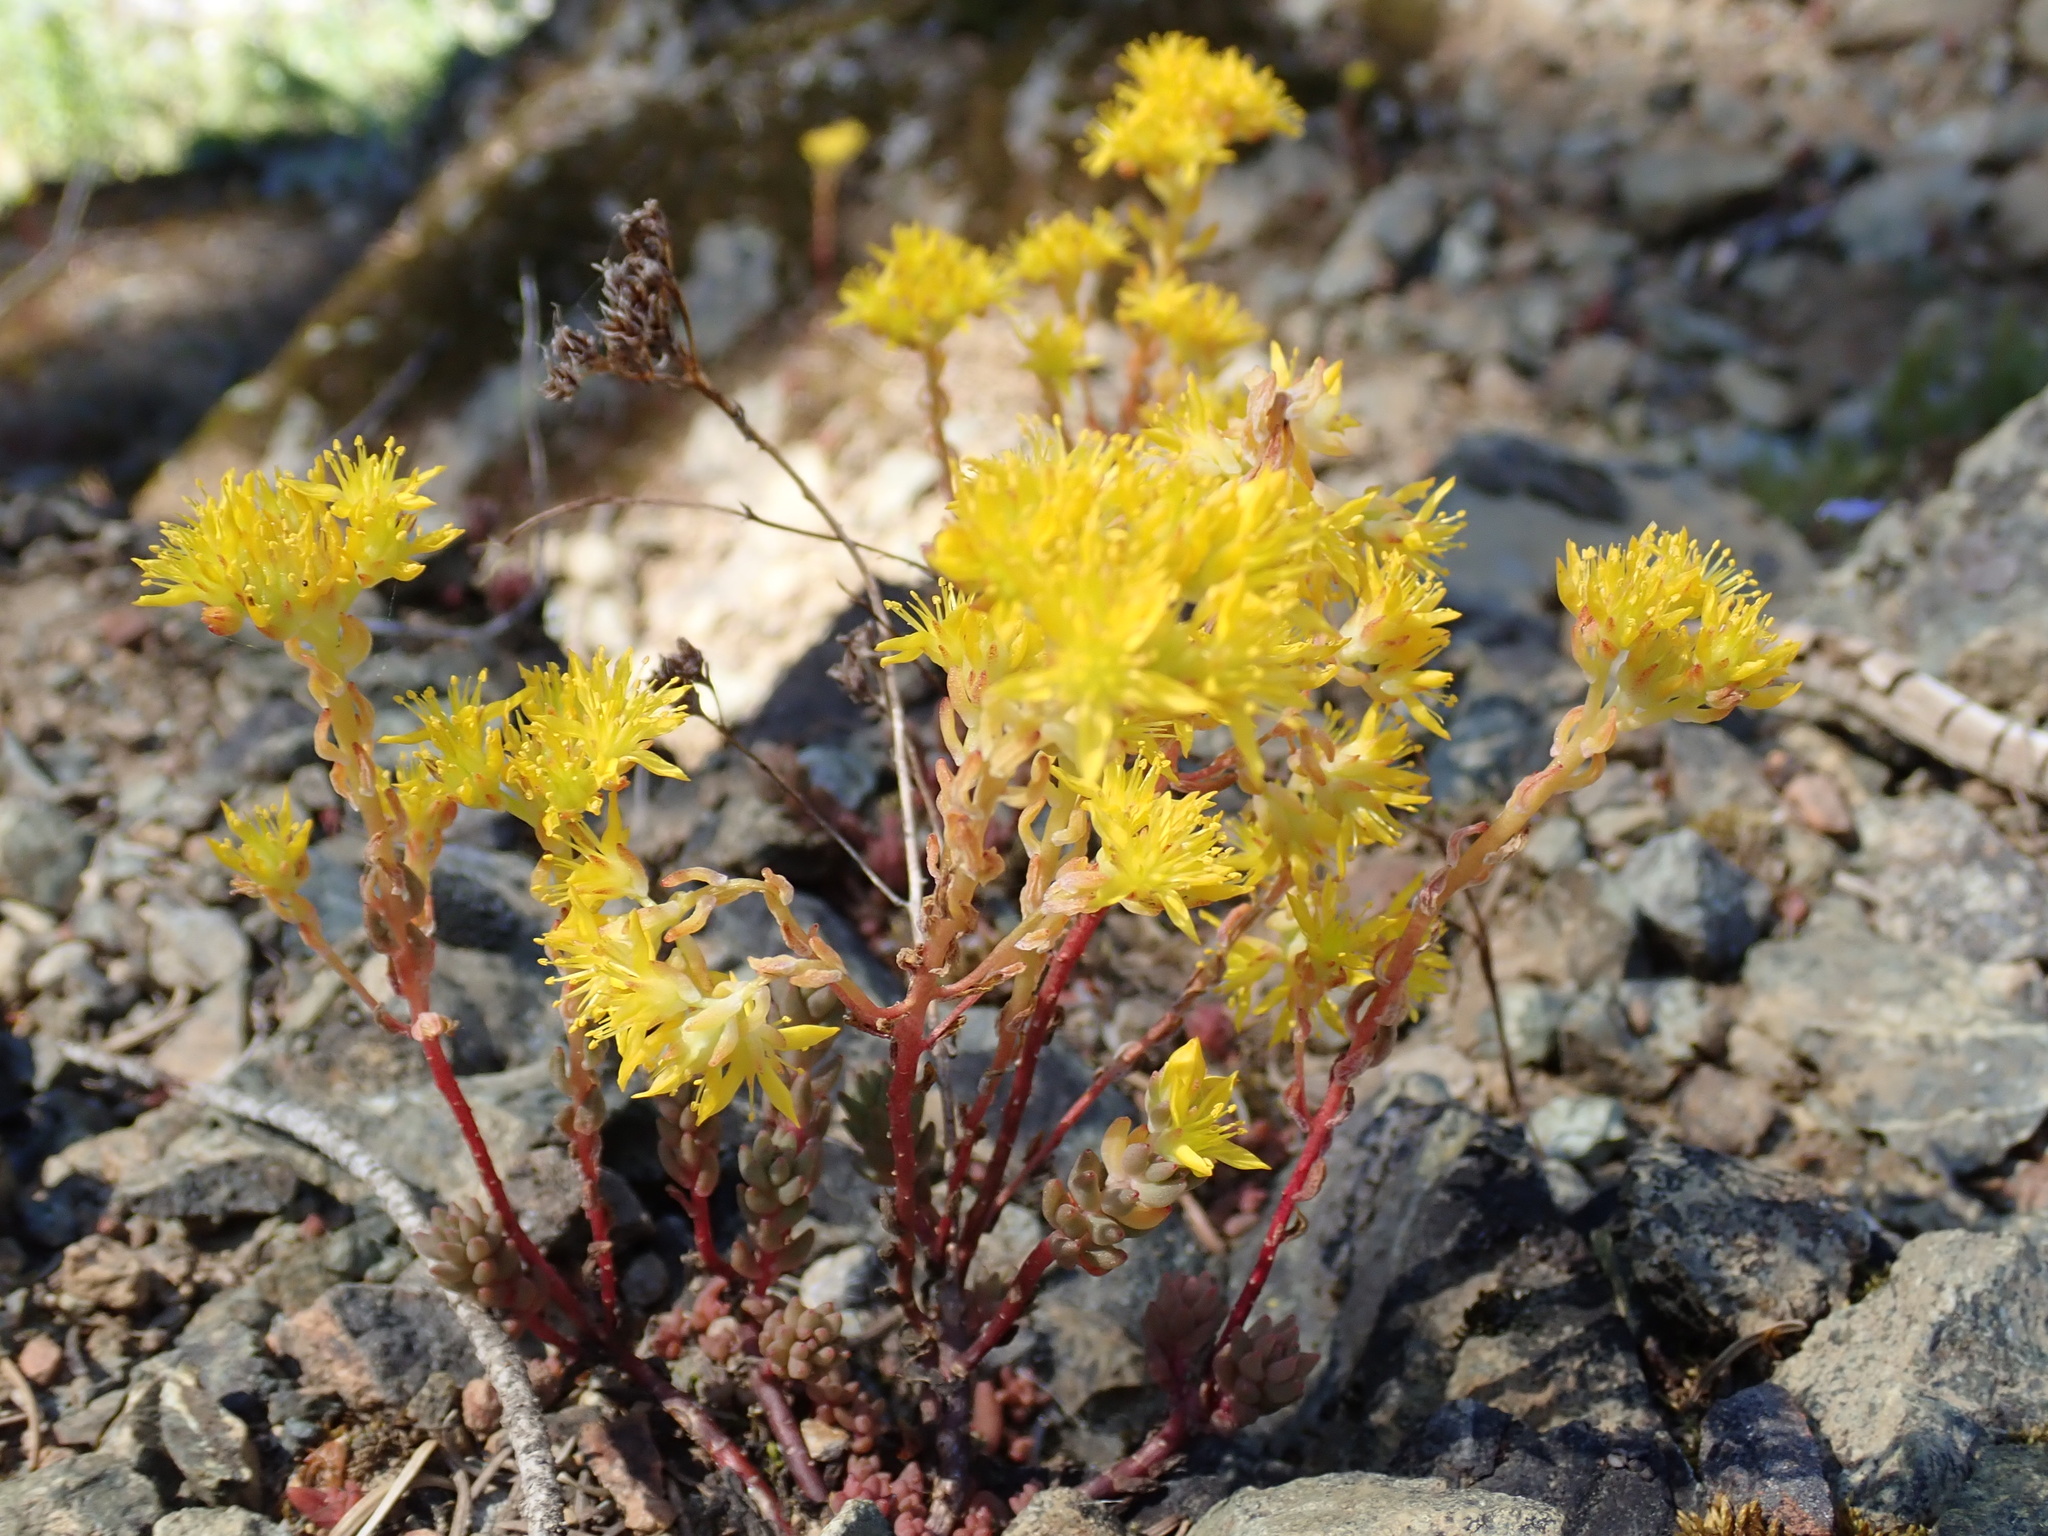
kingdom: Plantae
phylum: Tracheophyta
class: Magnoliopsida
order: Saxifragales
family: Crassulaceae
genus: Sedum
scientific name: Sedum lanceolatum
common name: Common stonecrop
